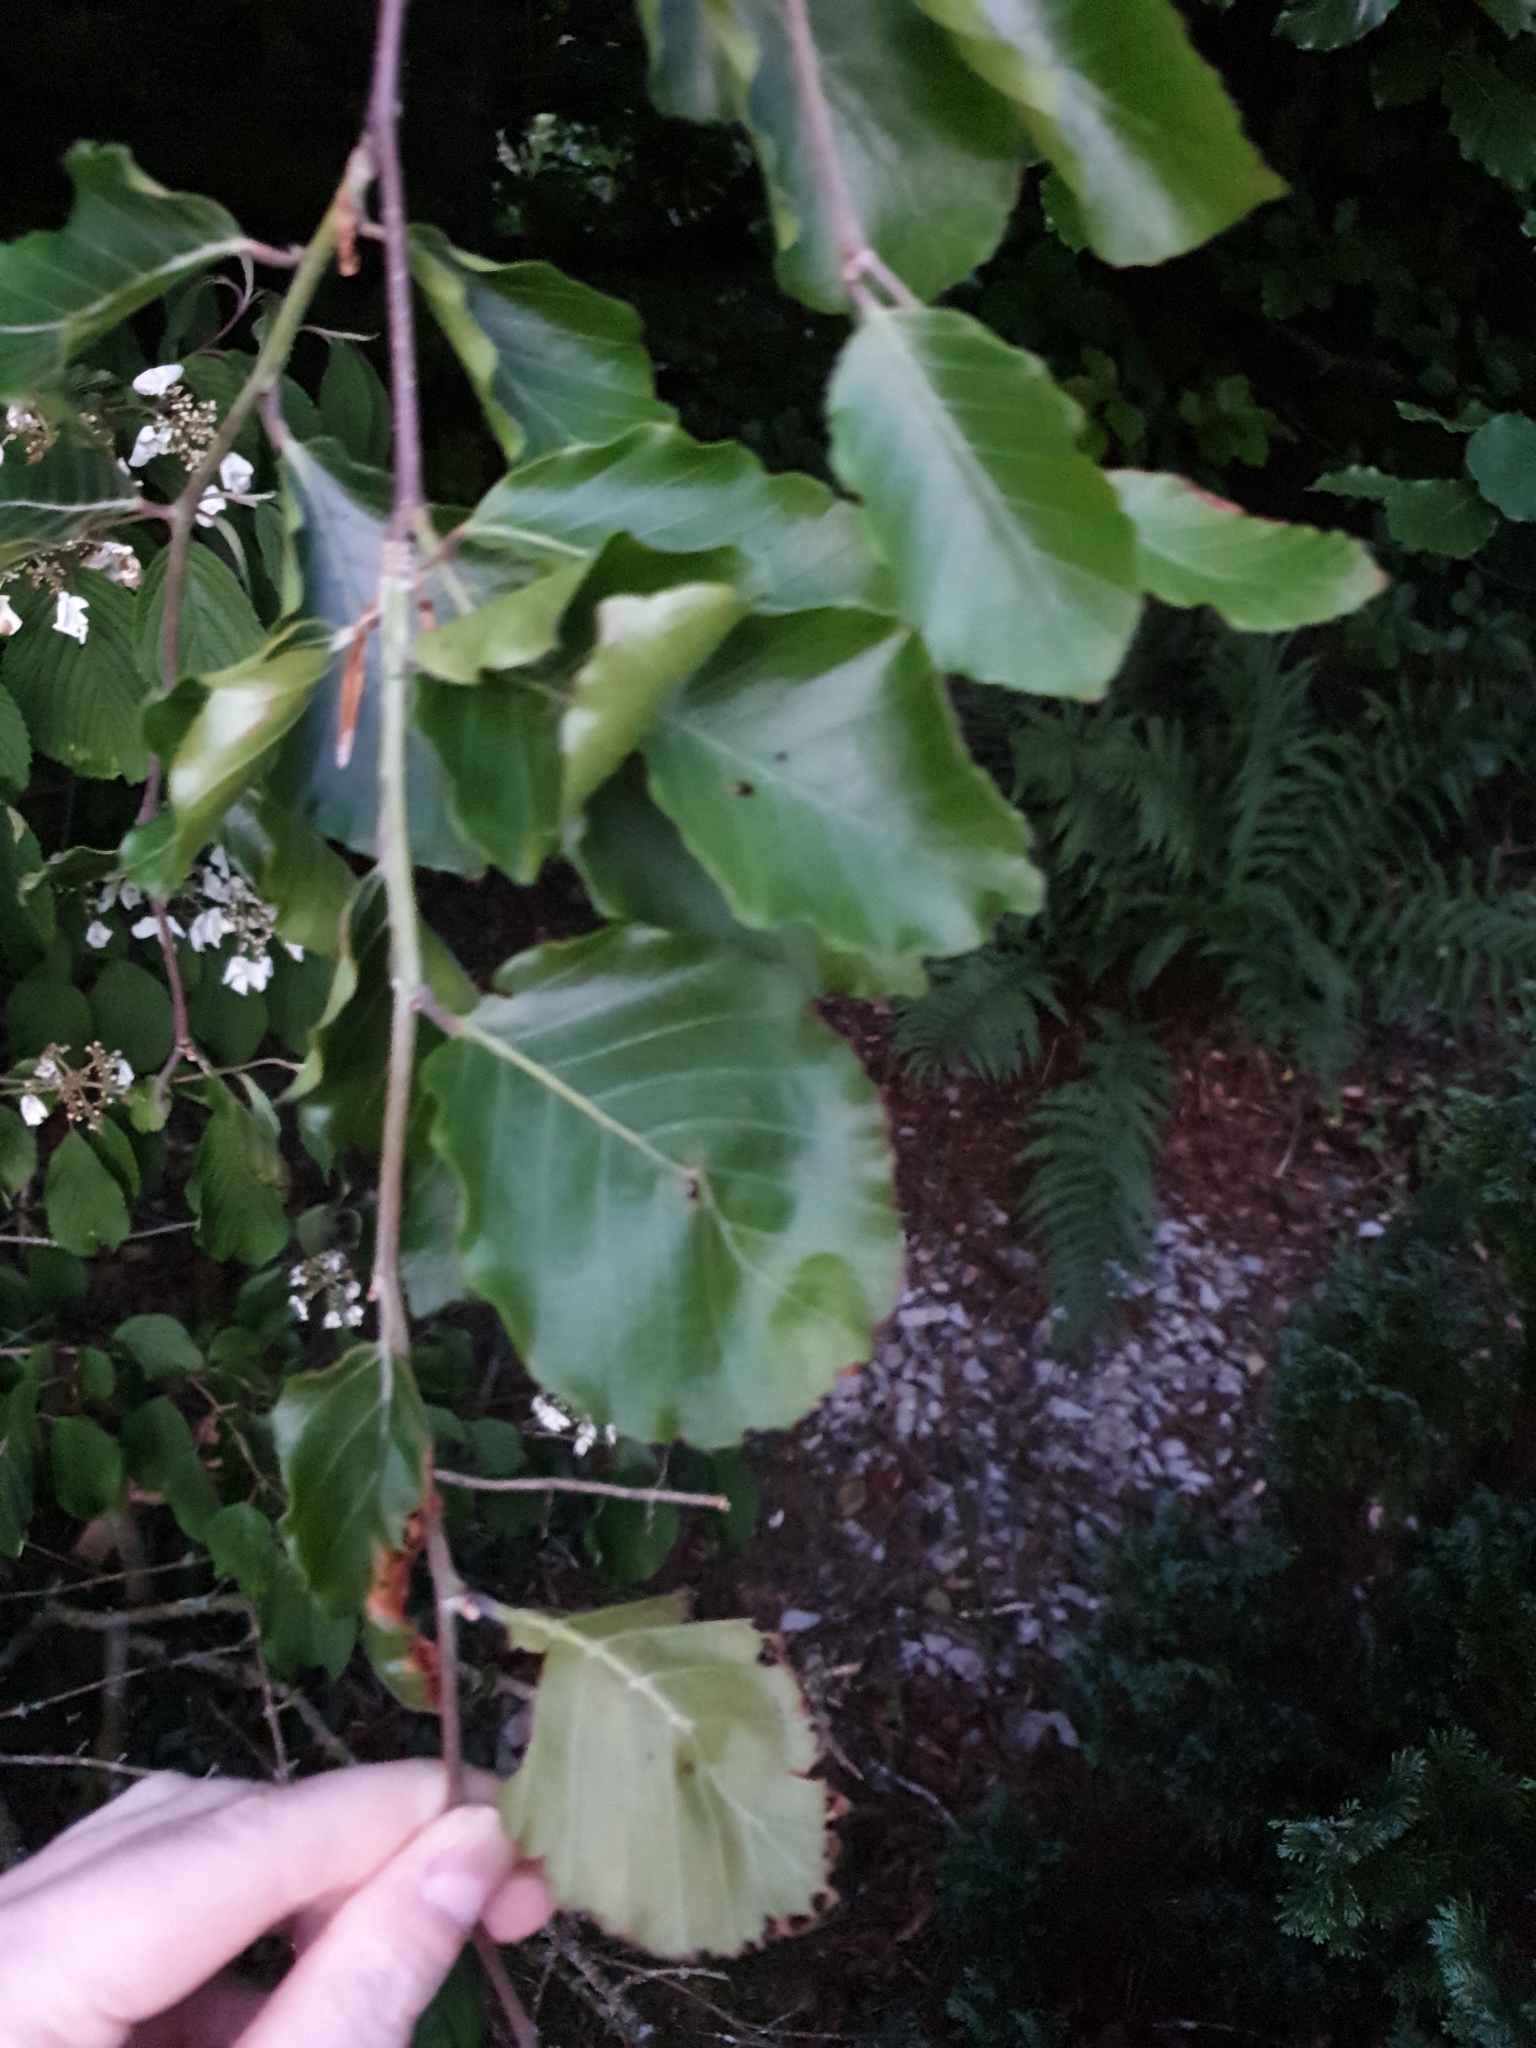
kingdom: Plantae
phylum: Tracheophyta
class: Magnoliopsida
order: Fagales
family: Fagaceae
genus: Fagus
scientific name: Fagus sylvatica
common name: Beech
